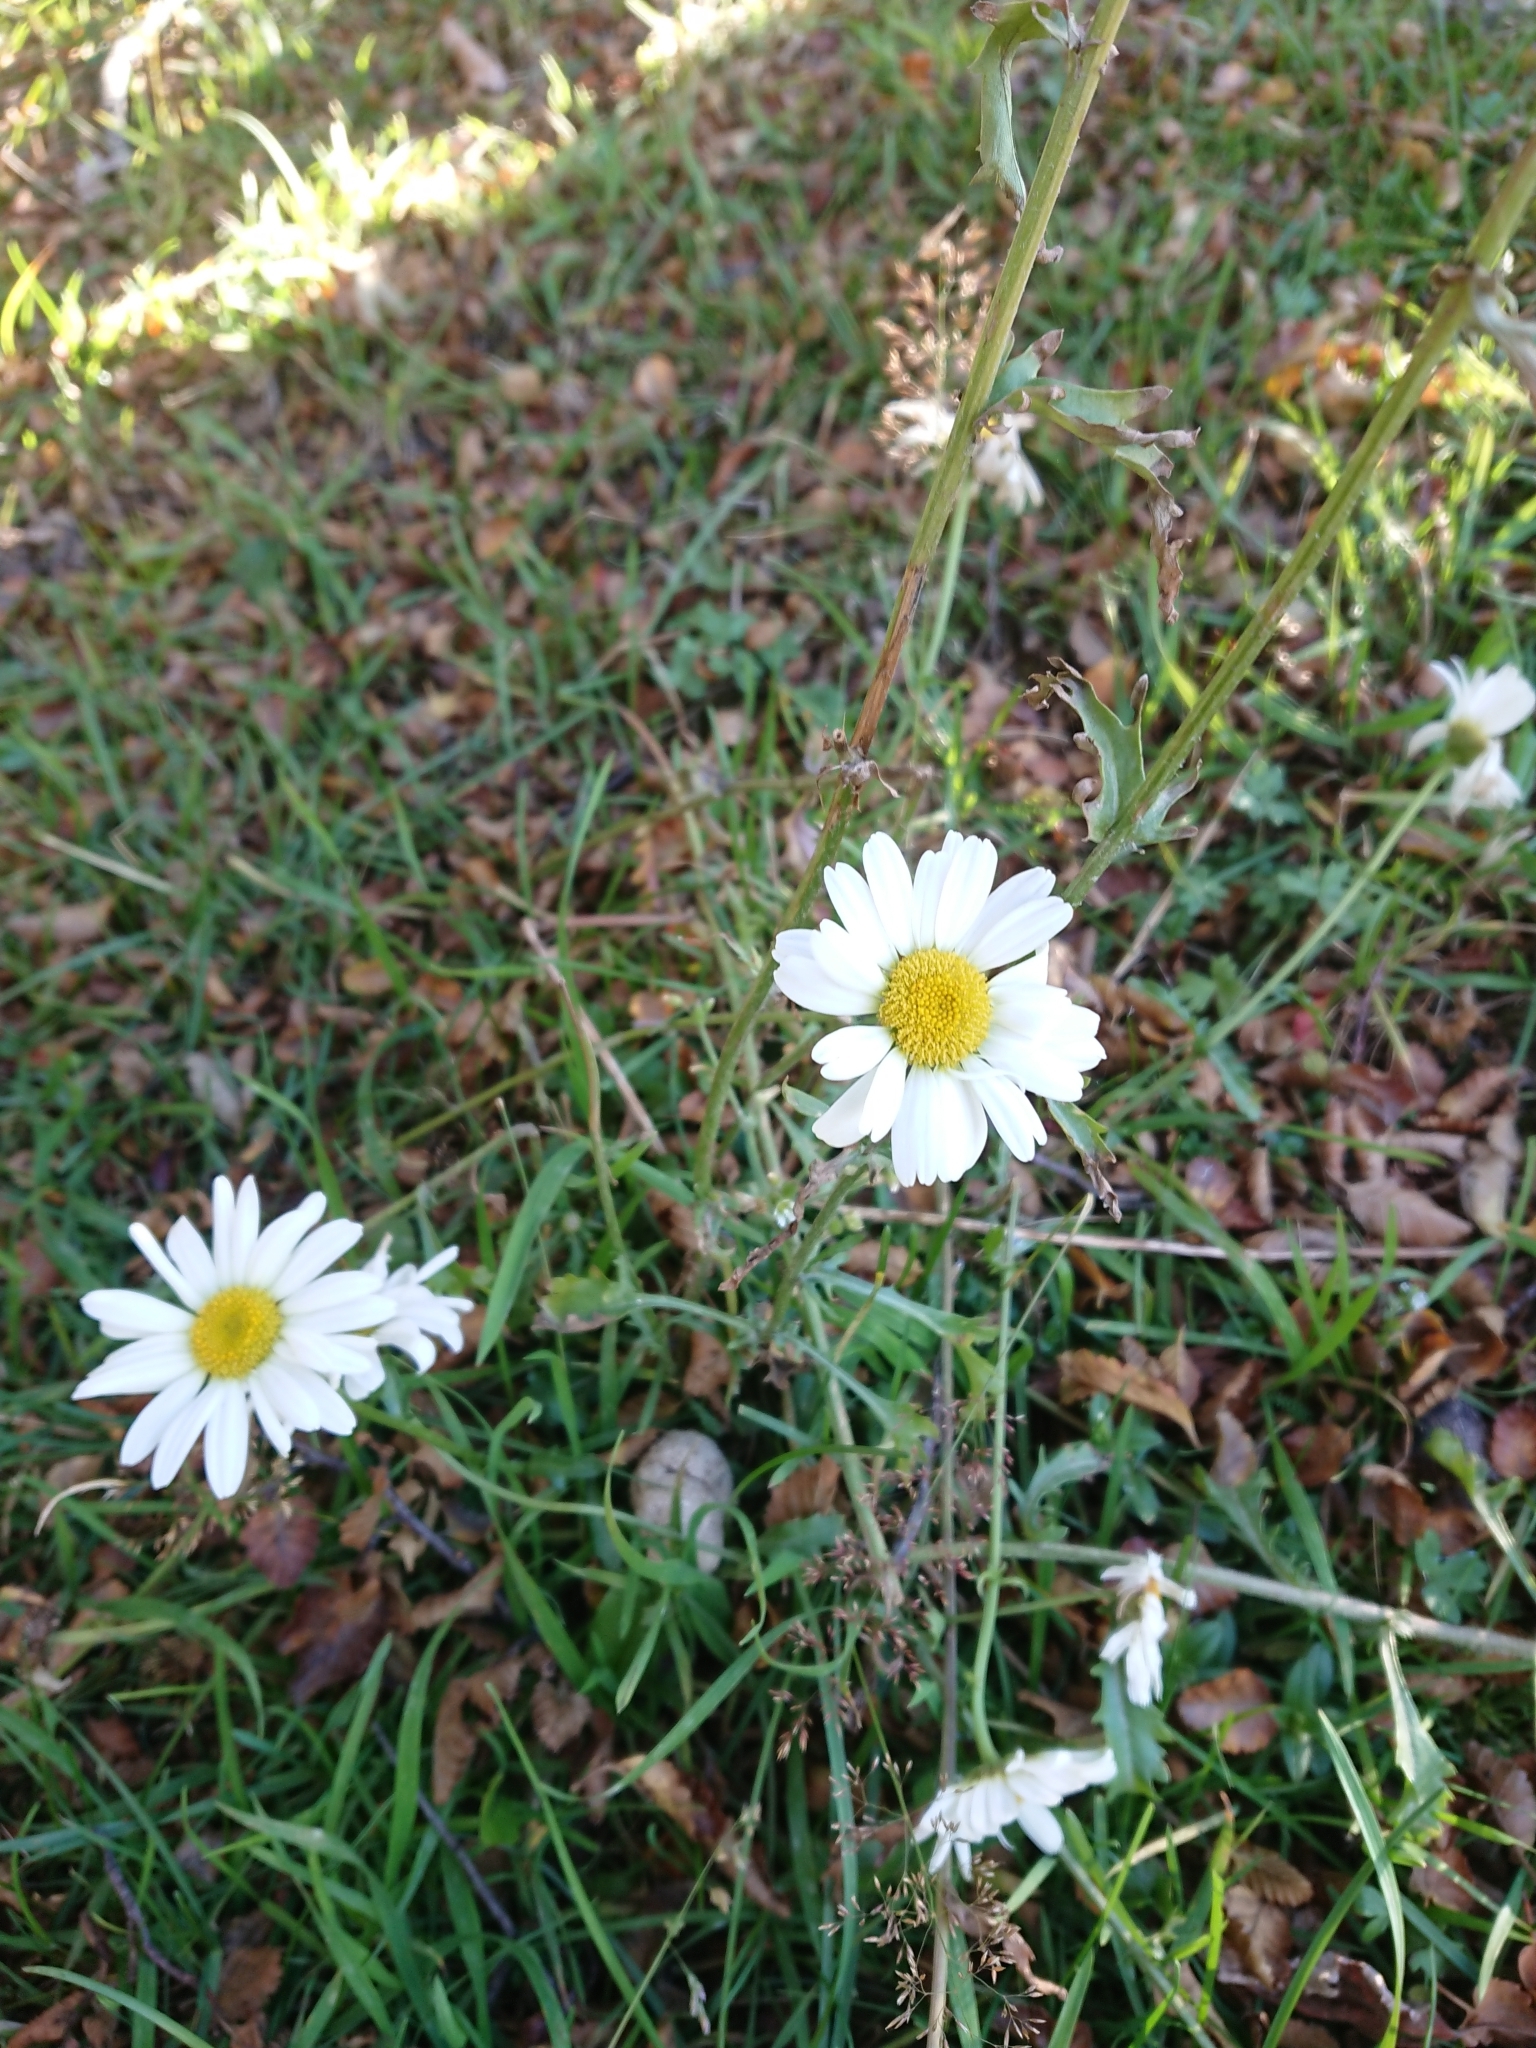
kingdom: Plantae
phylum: Tracheophyta
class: Magnoliopsida
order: Asterales
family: Asteraceae
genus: Leucanthemum
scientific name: Leucanthemum vulgare
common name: Oxeye daisy
